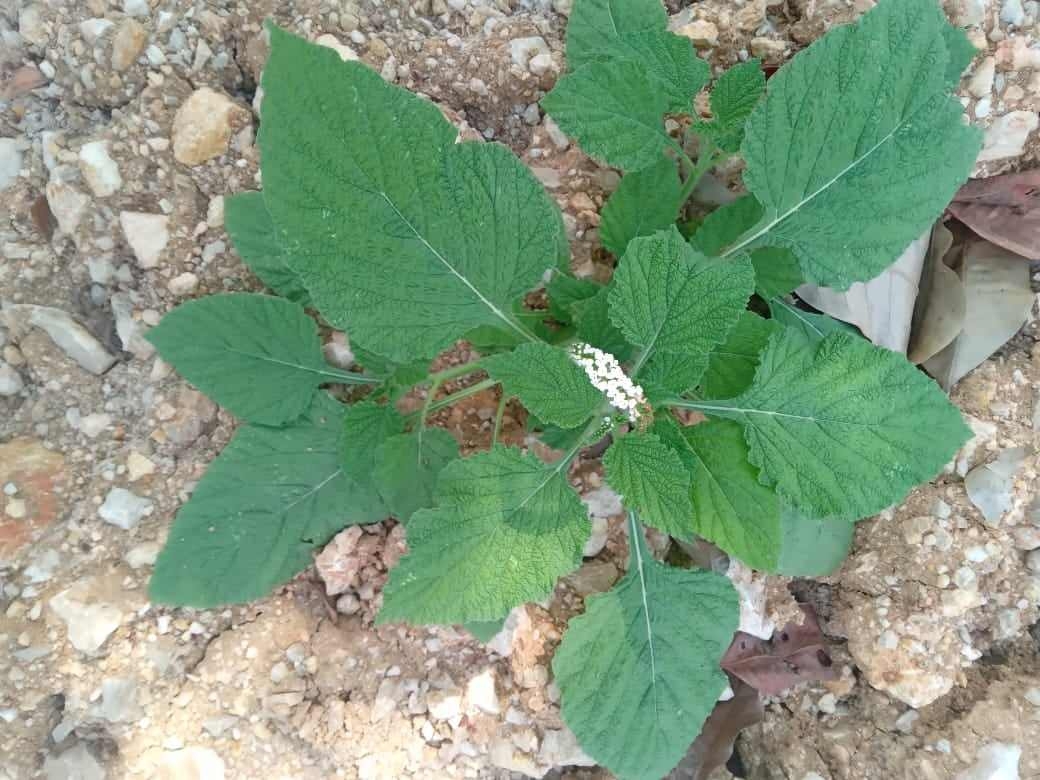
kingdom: Plantae
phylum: Tracheophyta
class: Magnoliopsida
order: Boraginales
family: Heliotropiaceae
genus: Heliotropium
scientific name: Heliotropium indicum
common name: Indian heliotrope
